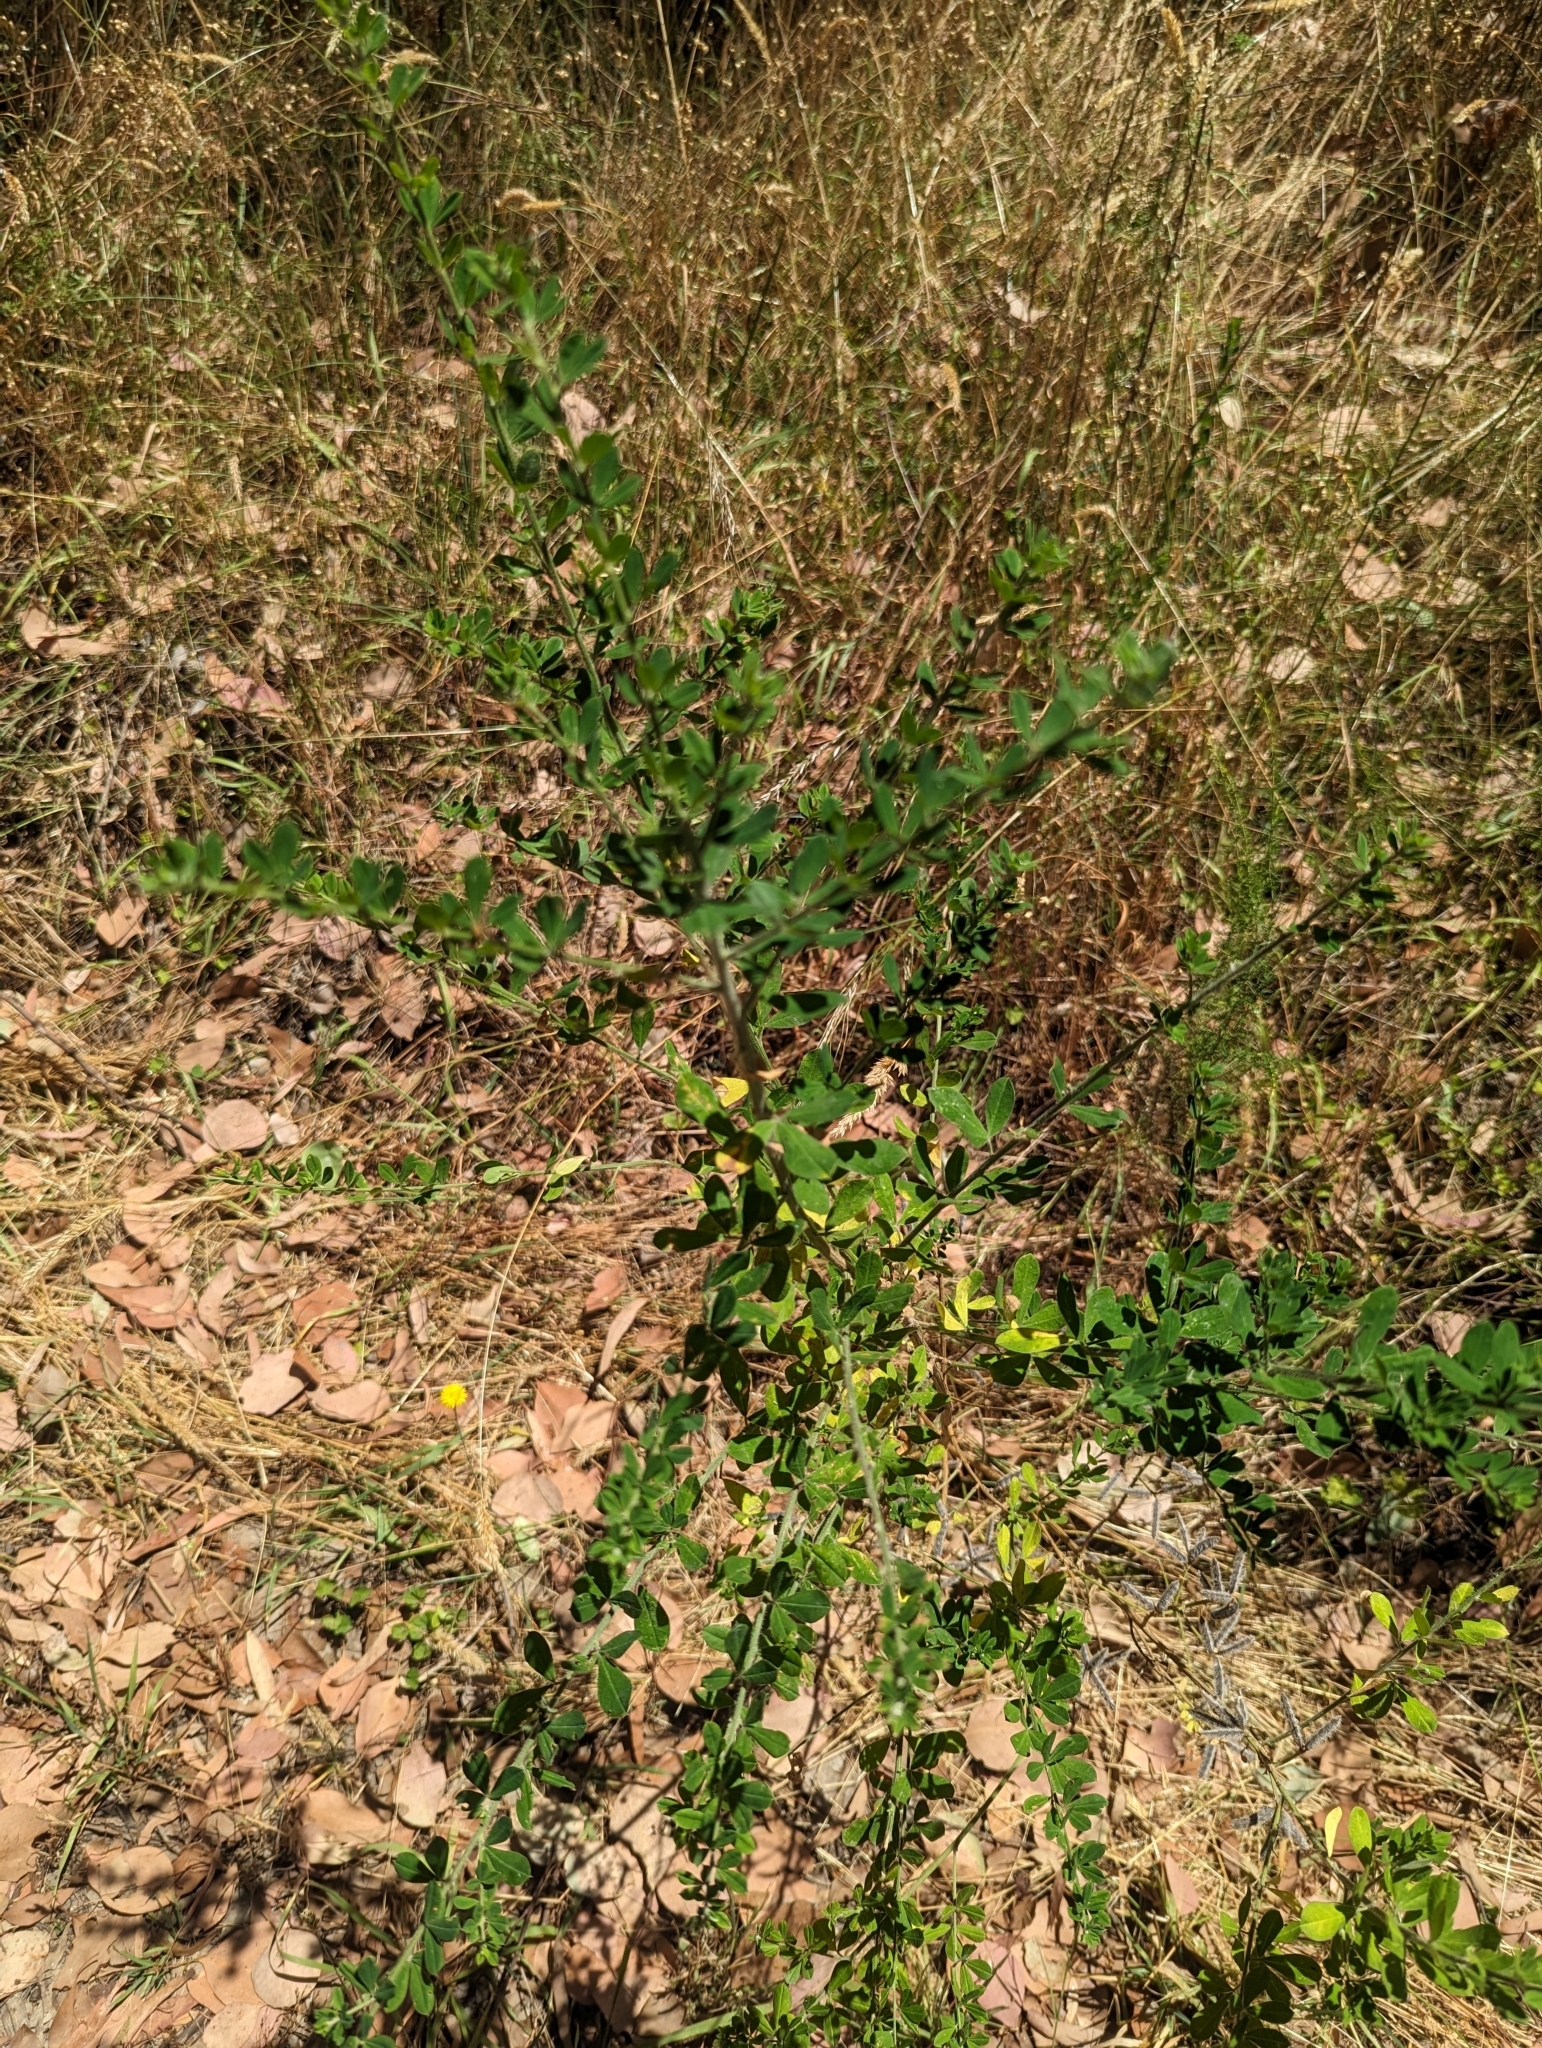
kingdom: Plantae
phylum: Tracheophyta
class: Magnoliopsida
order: Fabales
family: Fabaceae
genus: Genista
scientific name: Genista monspessulana
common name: Montpellier broom
